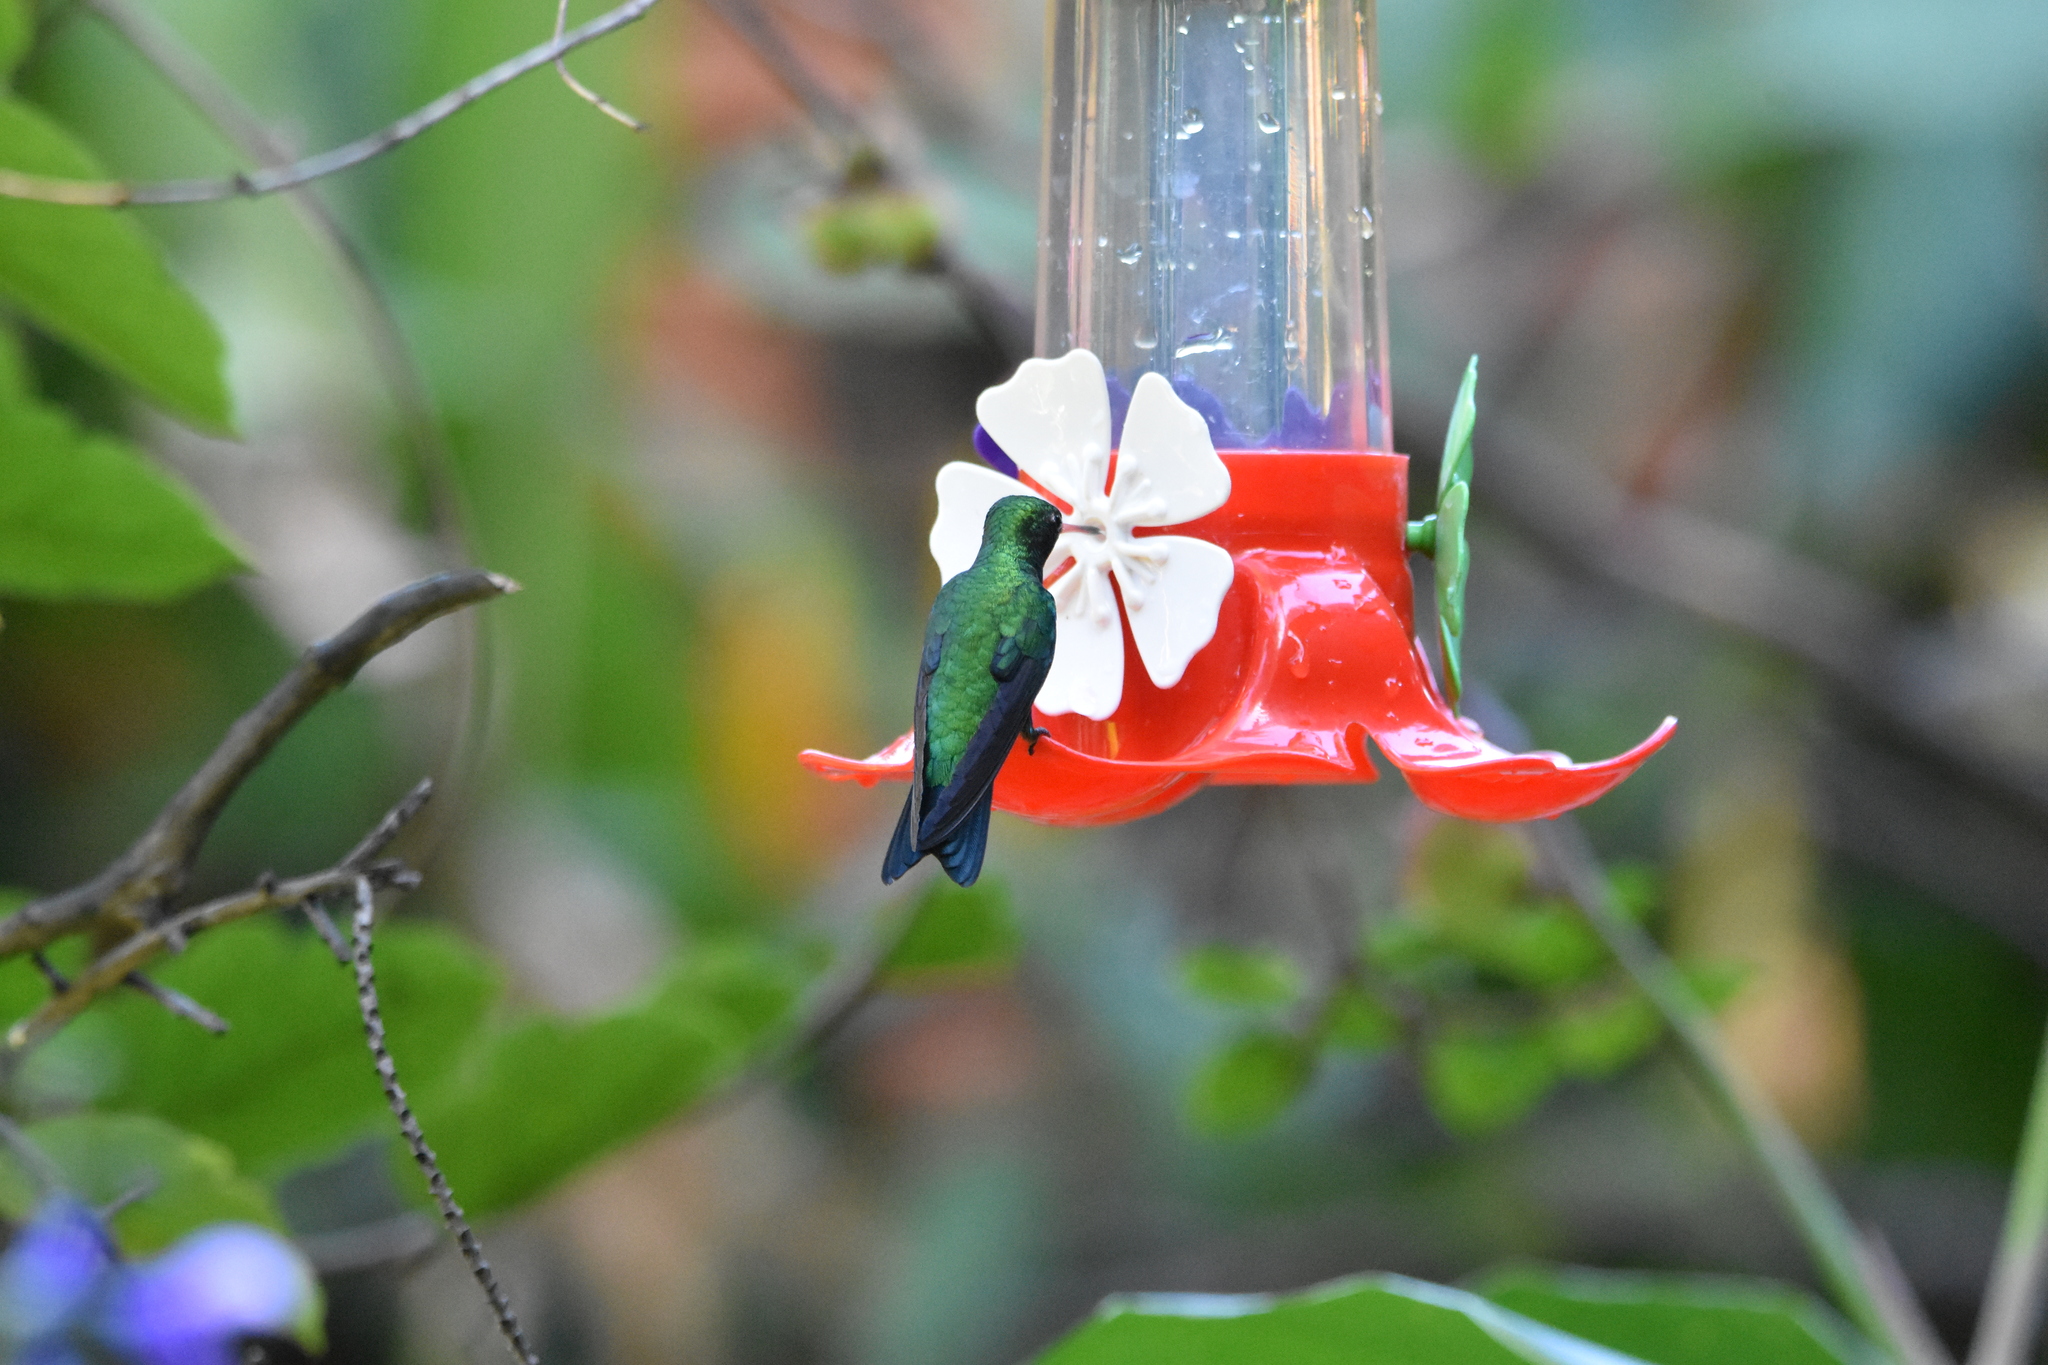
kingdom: Animalia
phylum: Chordata
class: Aves
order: Apodiformes
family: Trochilidae
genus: Chlorostilbon
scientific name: Chlorostilbon lucidus
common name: Glittering-bellied emerald
